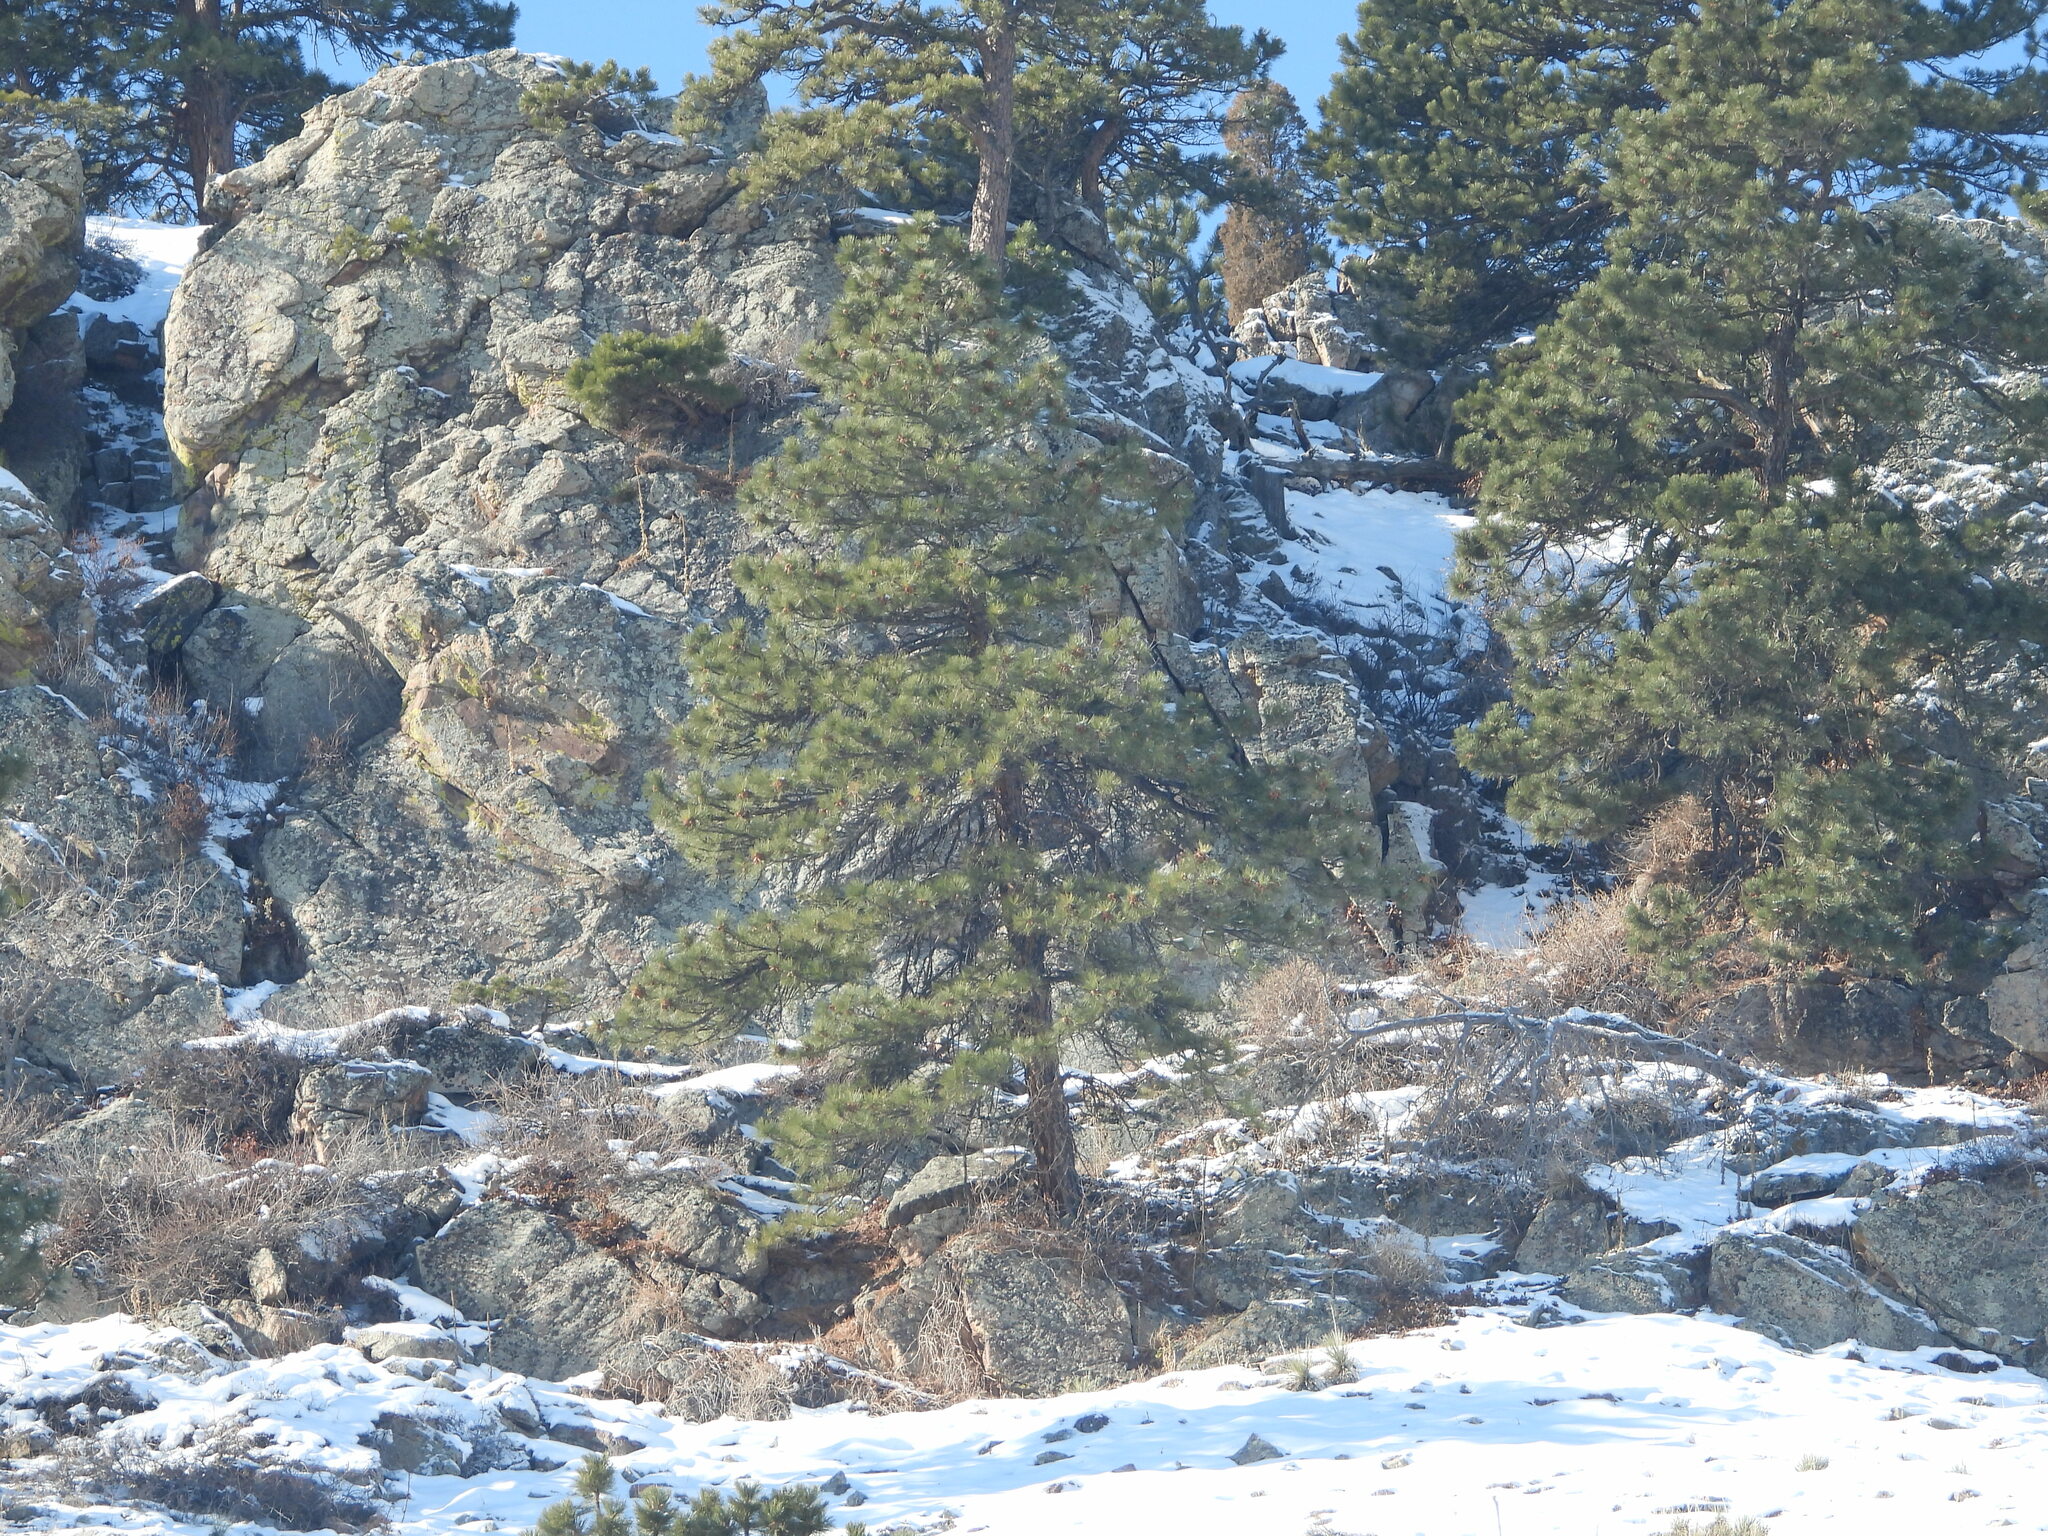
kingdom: Plantae
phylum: Tracheophyta
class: Pinopsida
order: Pinales
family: Pinaceae
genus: Pinus
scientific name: Pinus ponderosa
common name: Western yellow-pine
